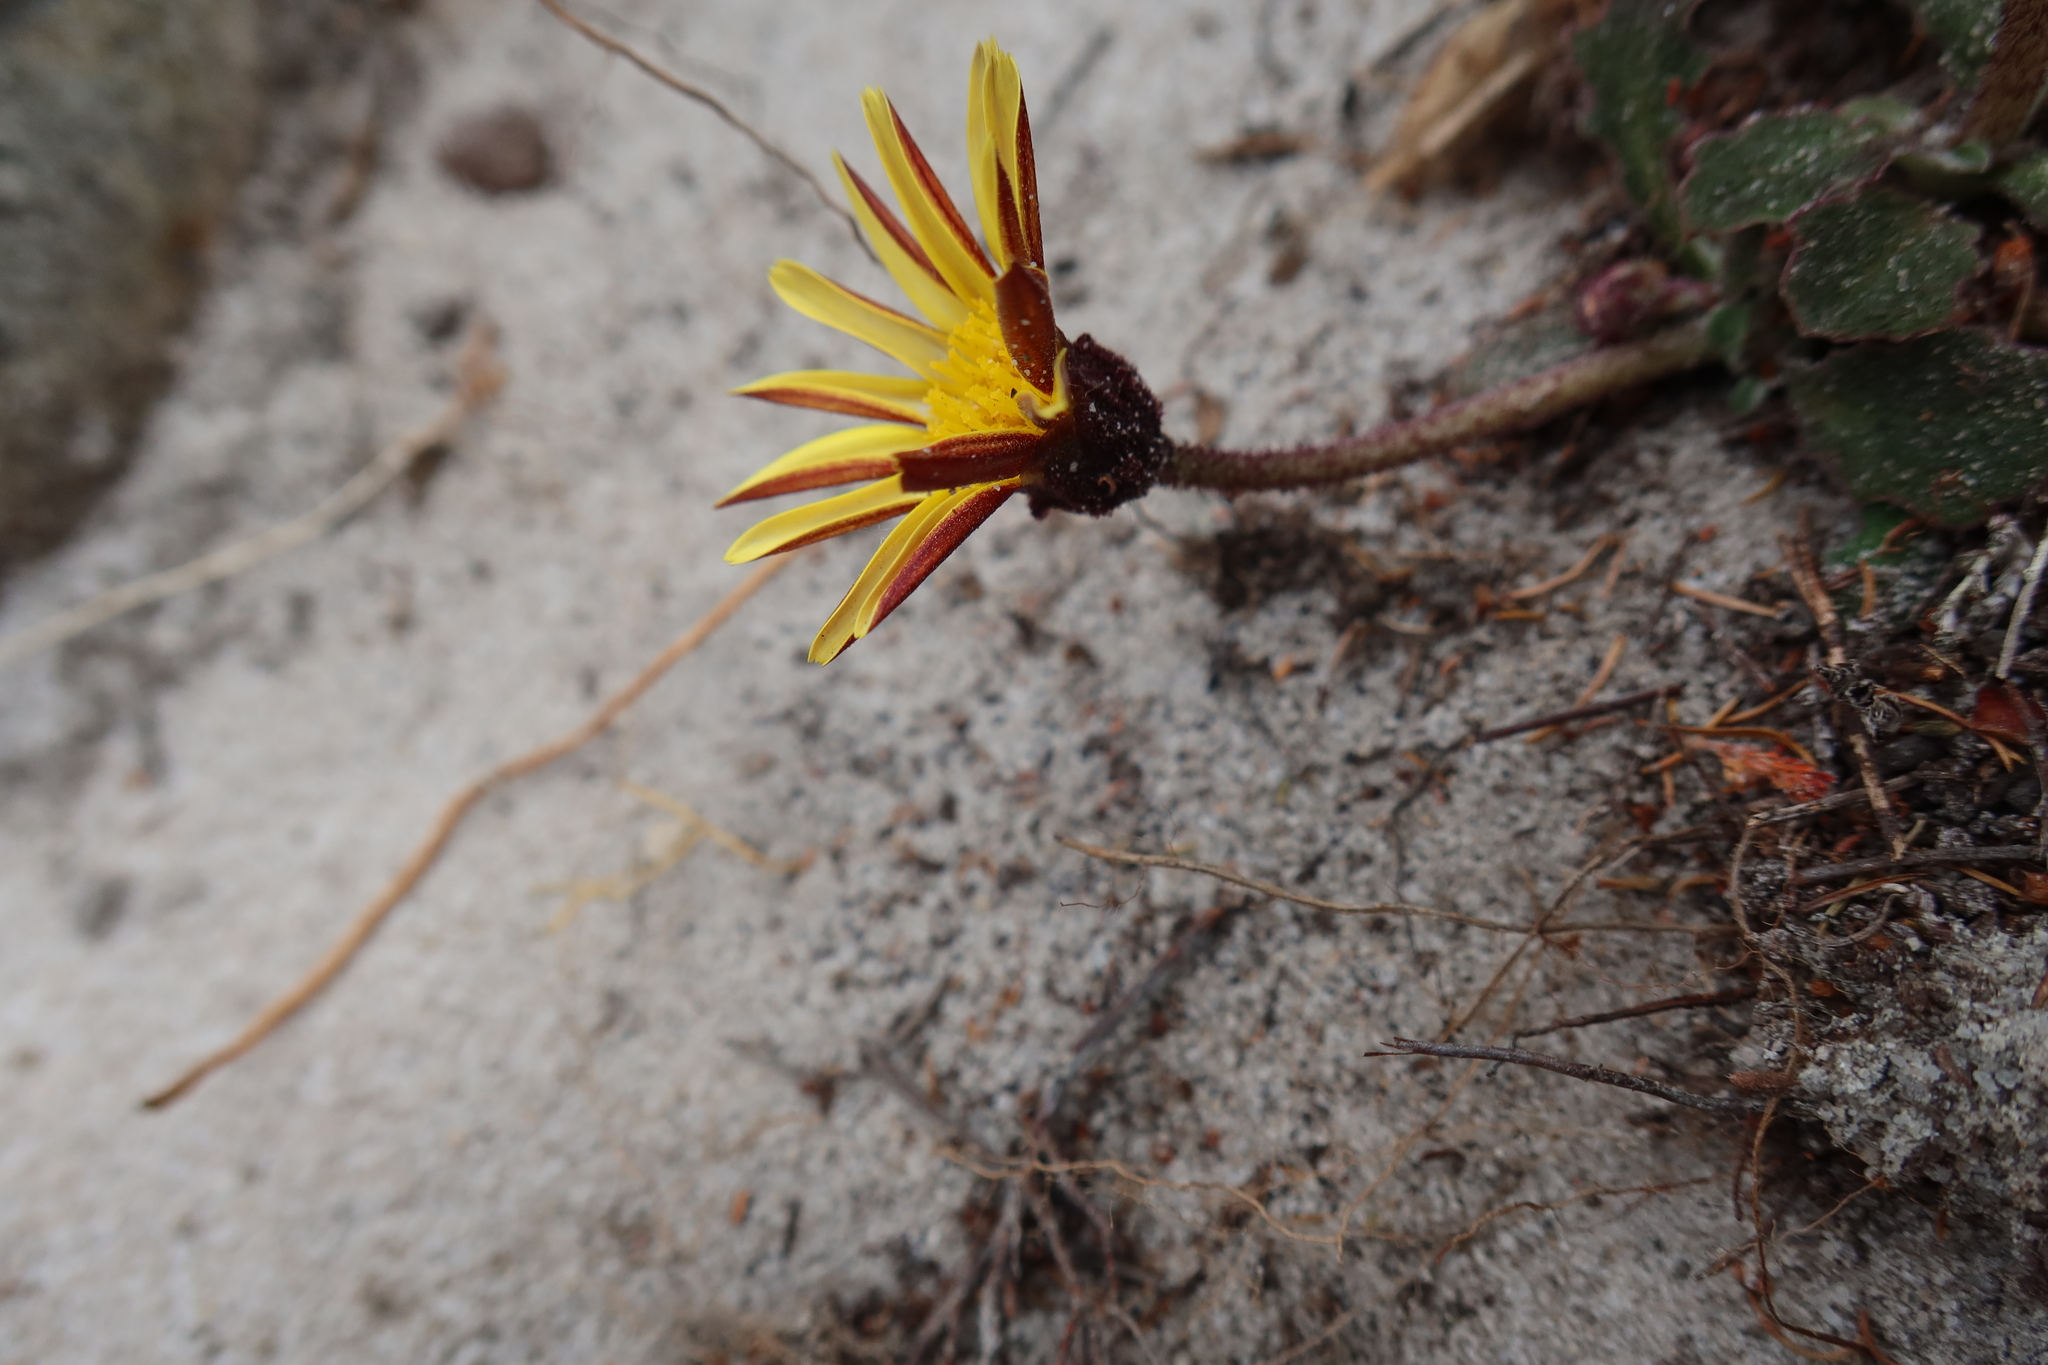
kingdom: Plantae
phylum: Tracheophyta
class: Magnoliopsida
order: Asterales
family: Asteraceae
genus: Haplocarpha
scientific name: Haplocarpha lanata
